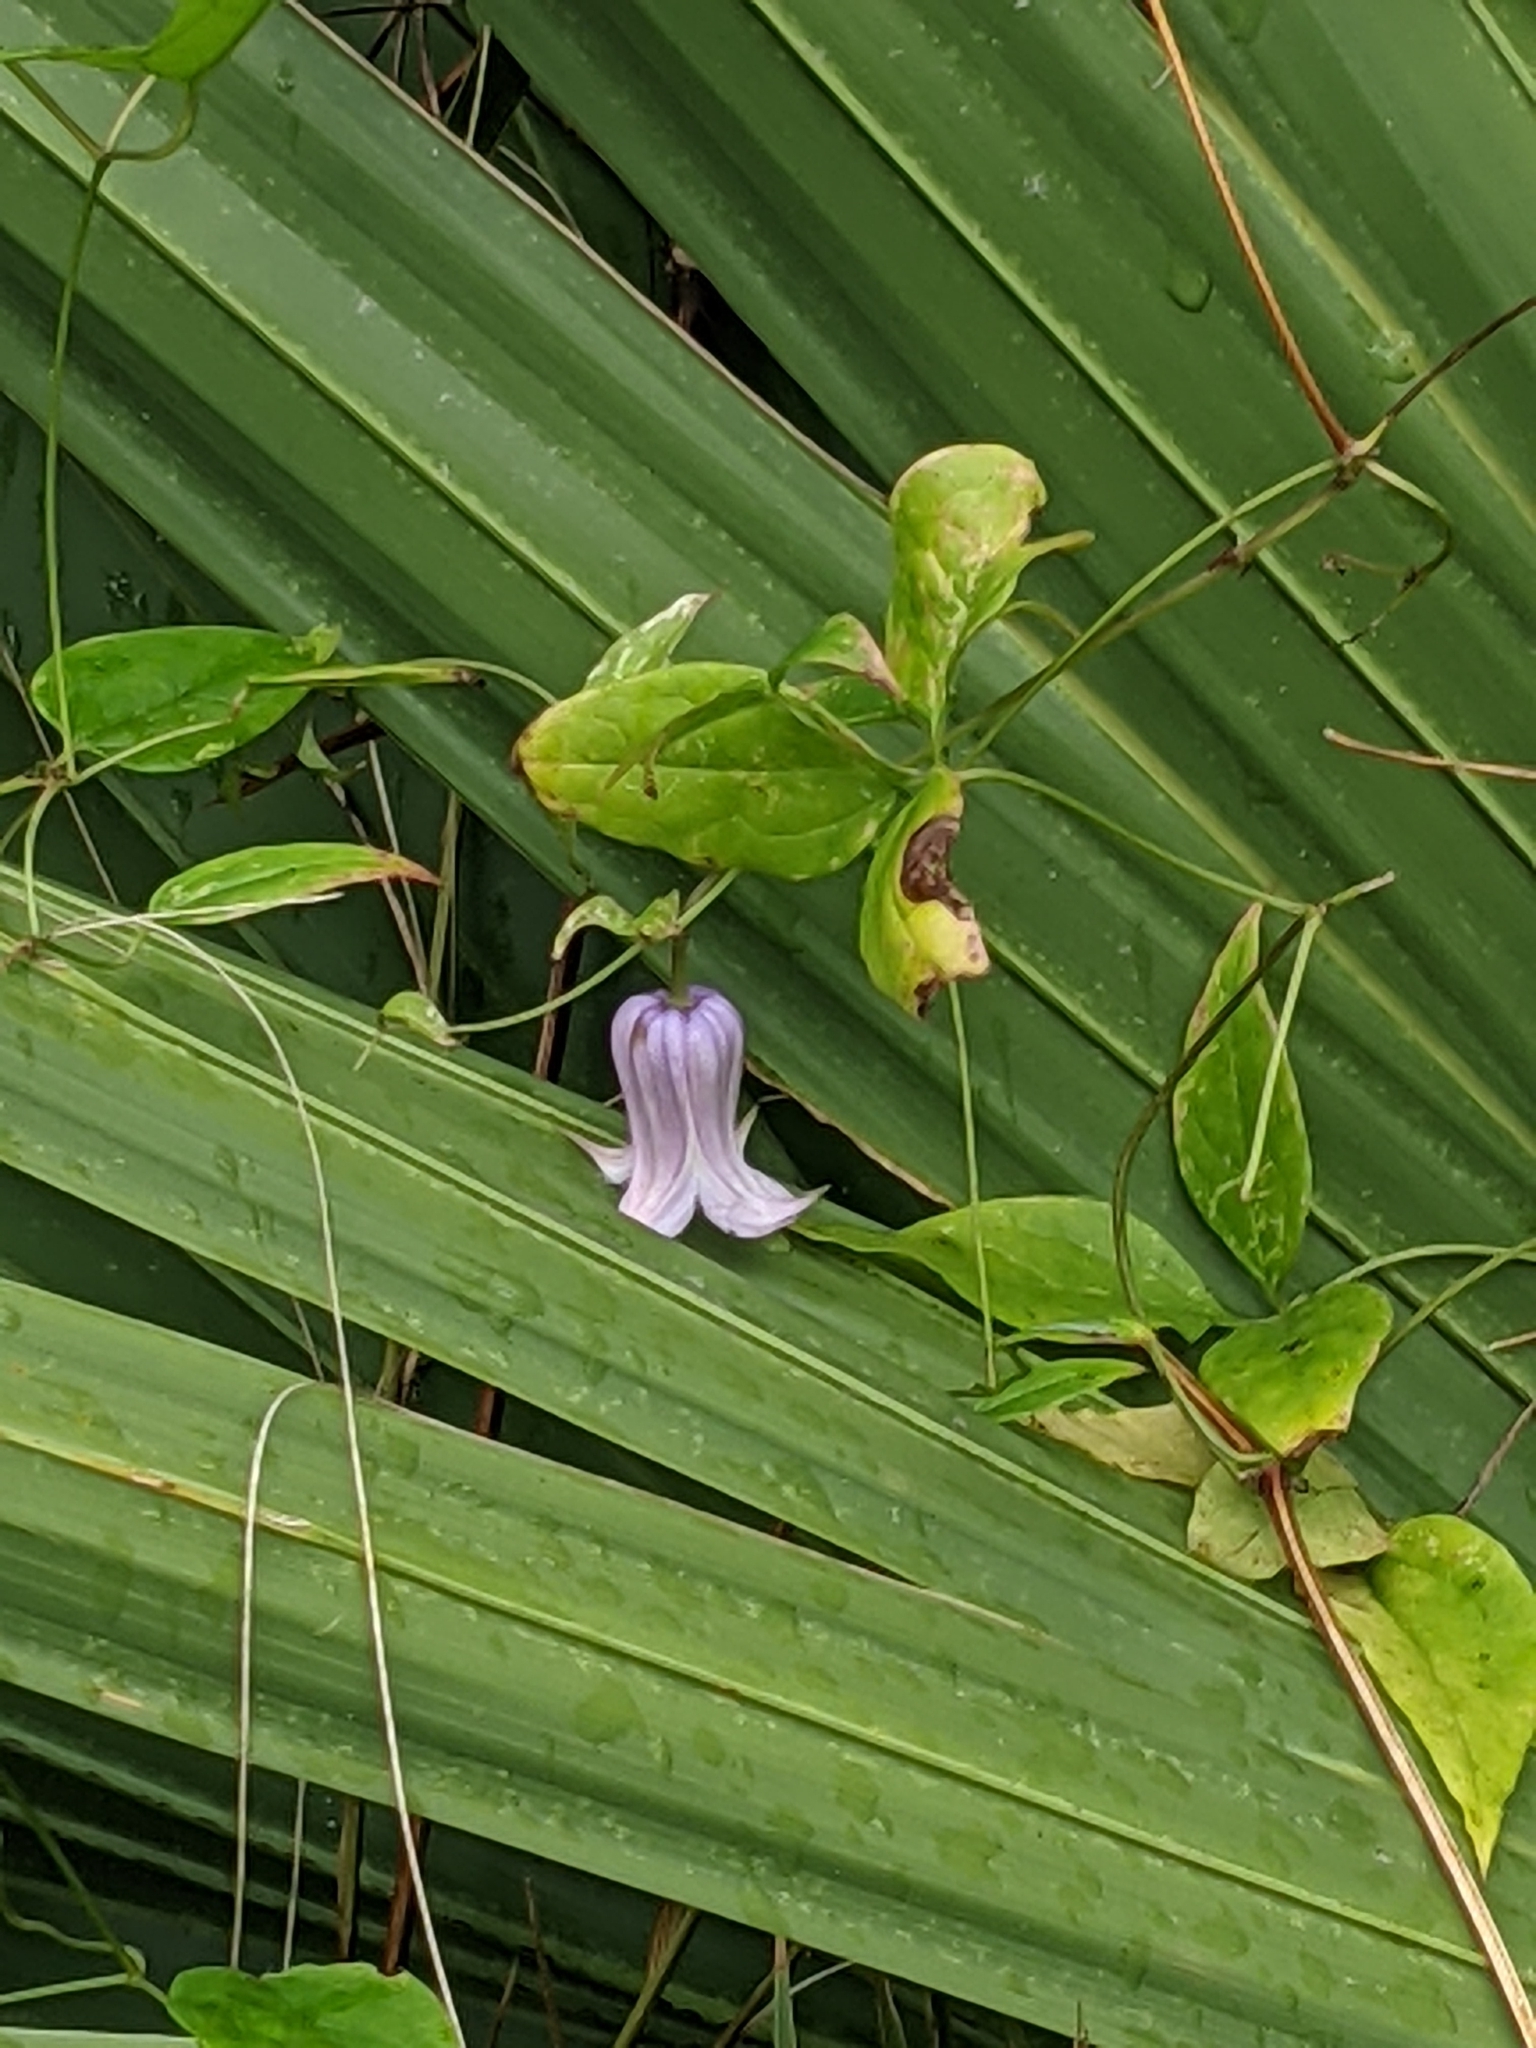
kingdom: Plantae
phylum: Tracheophyta
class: Magnoliopsida
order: Ranunculales
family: Ranunculaceae
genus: Clematis
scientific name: Clematis crispa
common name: Curly clematis
